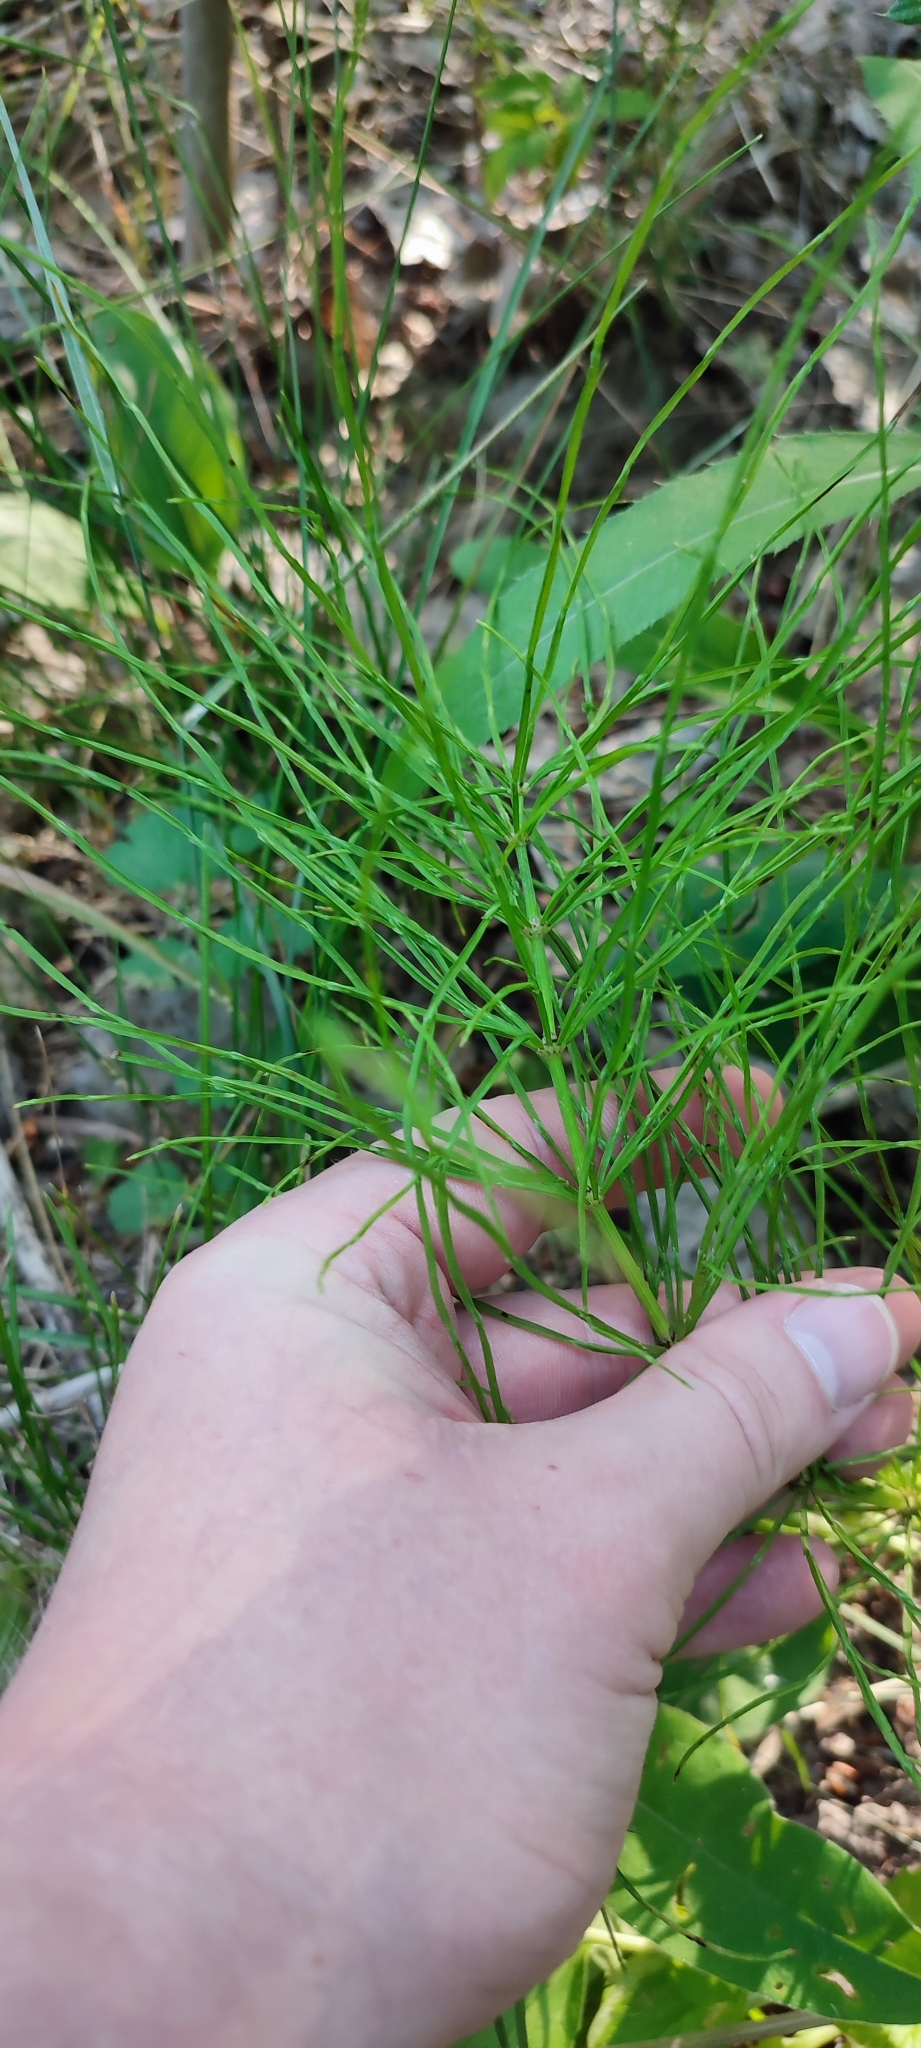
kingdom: Plantae
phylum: Tracheophyta
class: Polypodiopsida
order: Equisetales
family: Equisetaceae
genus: Equisetum
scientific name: Equisetum arvense
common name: Field horsetail
